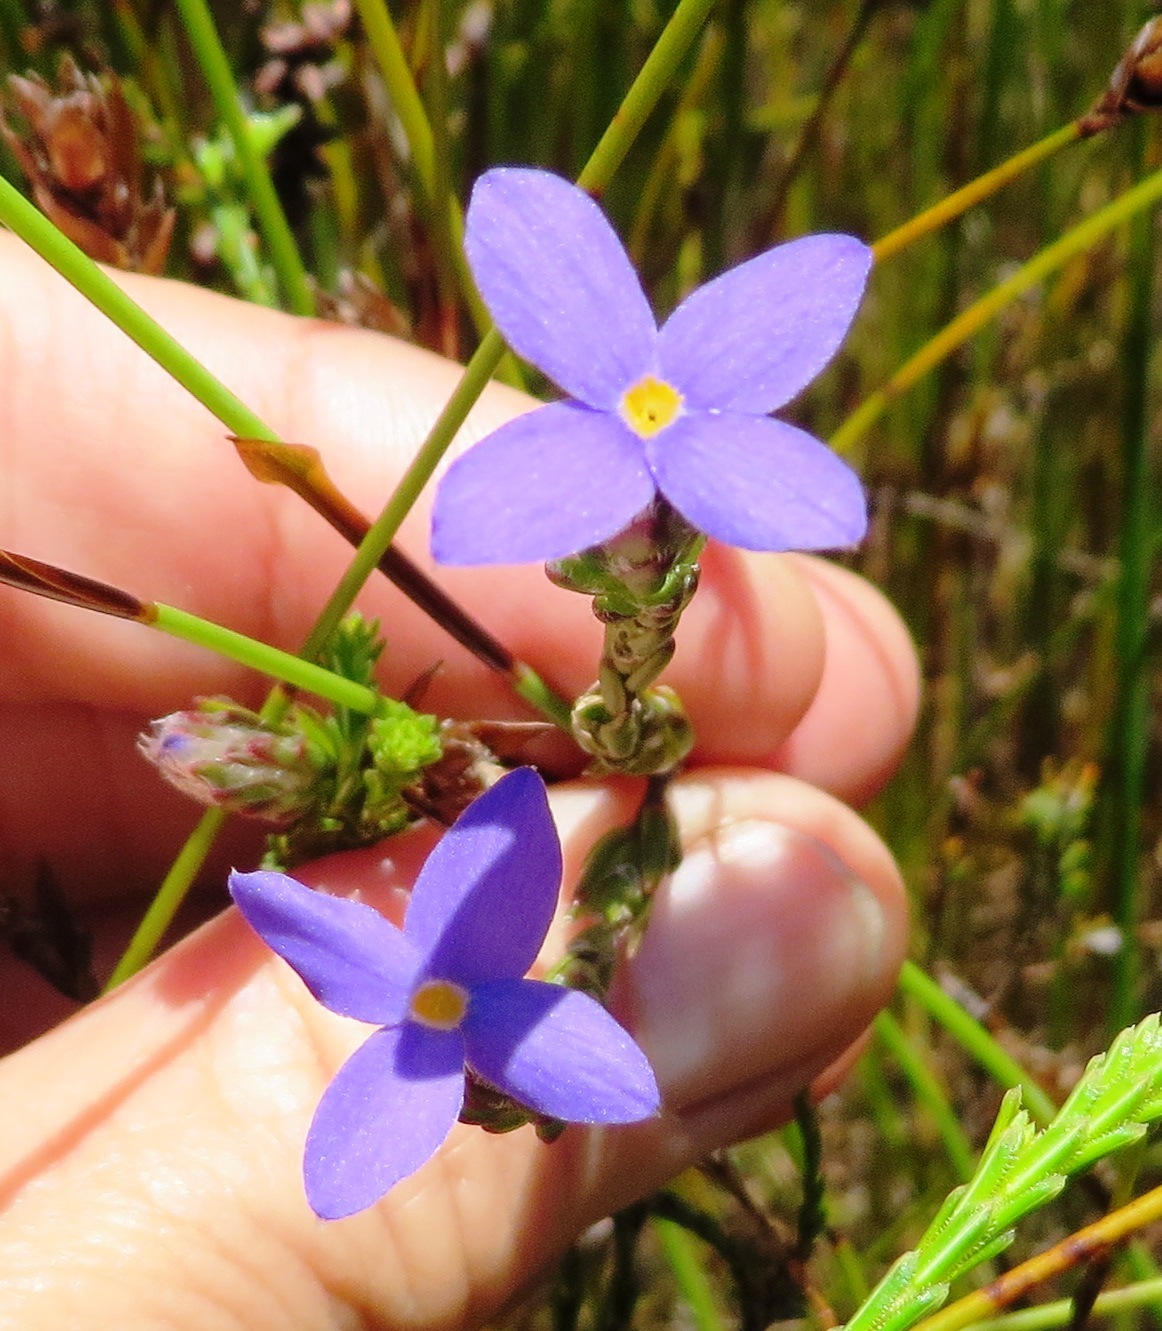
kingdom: Plantae
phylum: Tracheophyta
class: Magnoliopsida
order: Malvales
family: Thymelaeaceae
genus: Gnidia
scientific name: Gnidia penicillata
